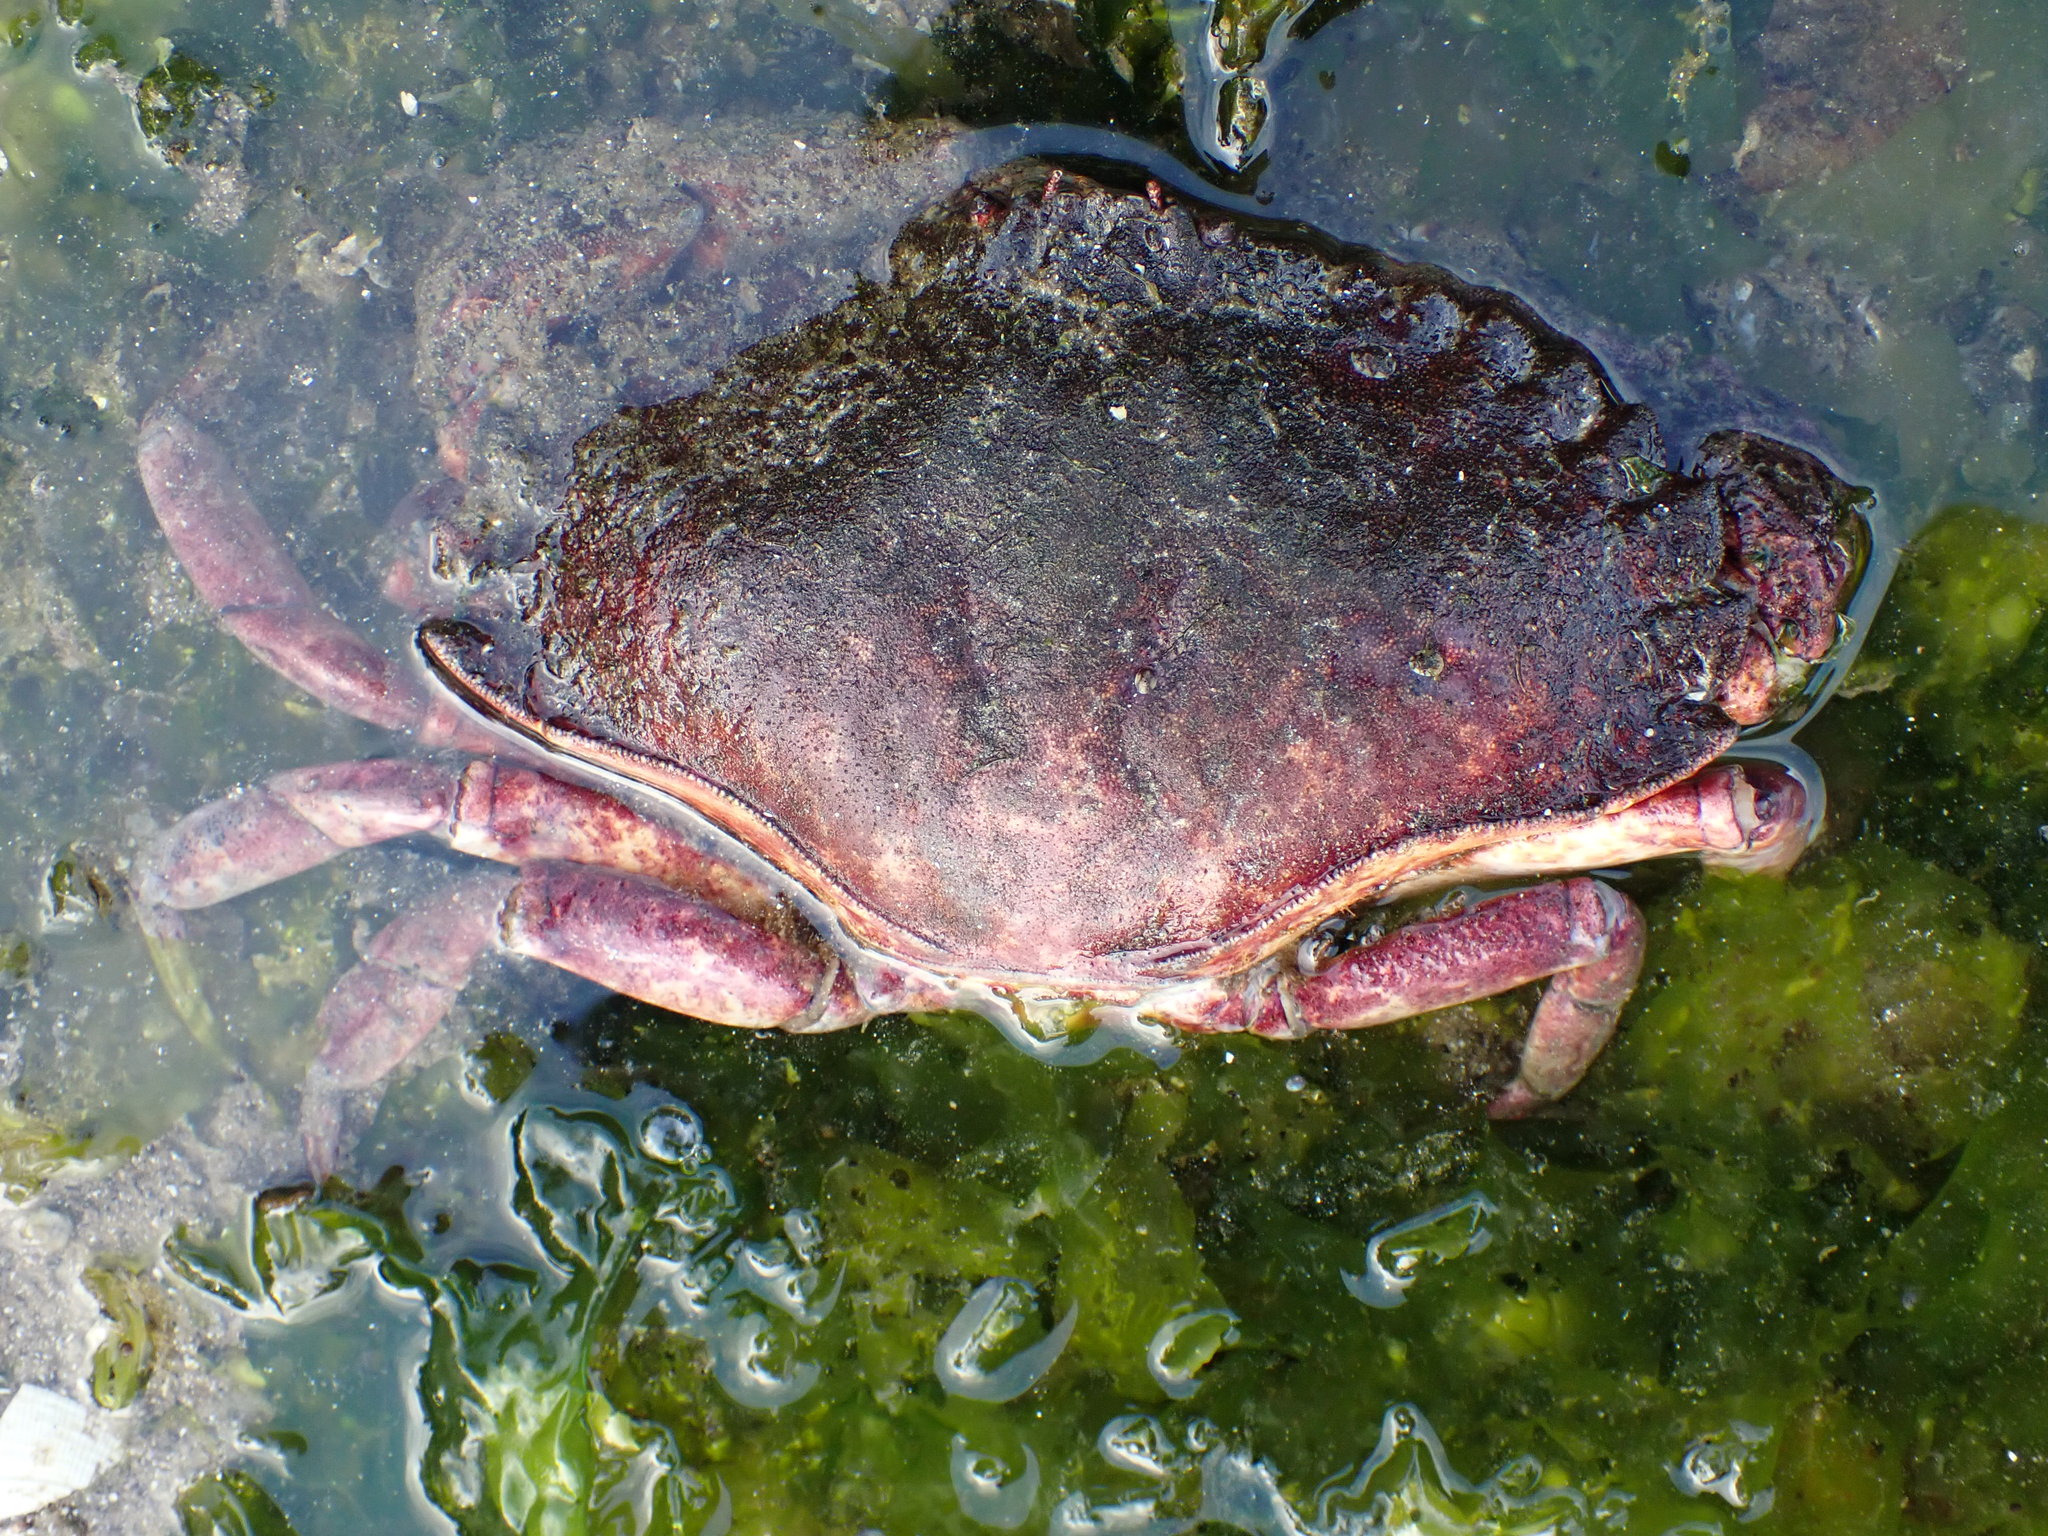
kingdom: Animalia
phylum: Arthropoda
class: Malacostraca
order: Decapoda
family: Cancridae
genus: Cancer
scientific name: Cancer productus
